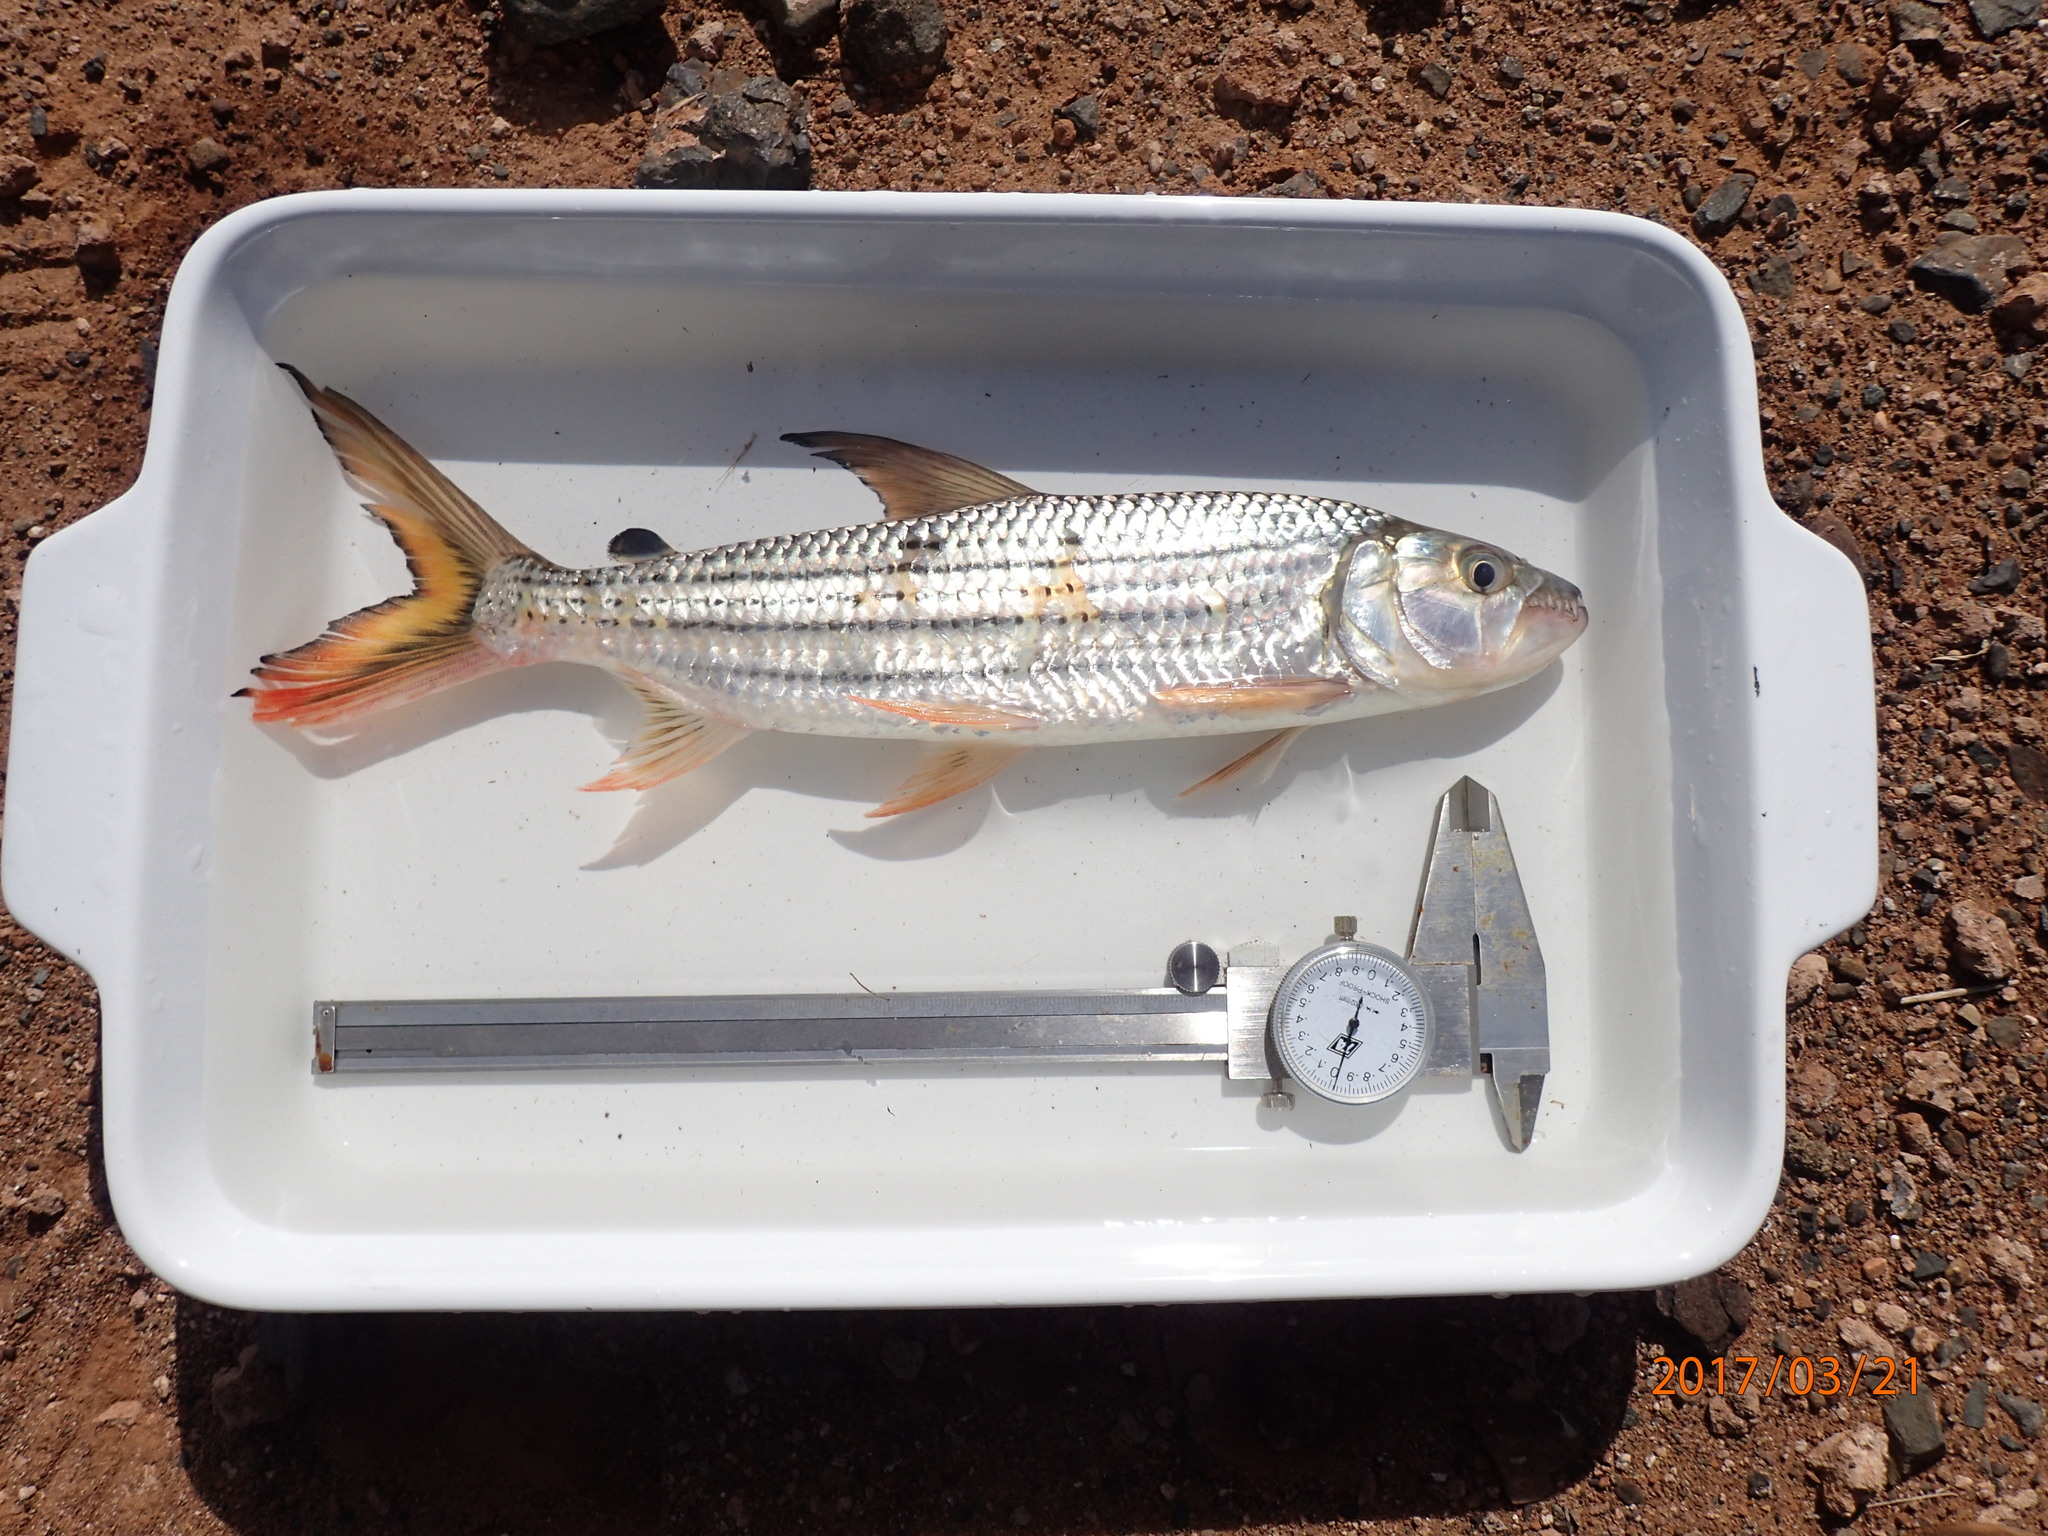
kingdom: Animalia
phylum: Chordata
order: Characiformes
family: Alestidae
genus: Hydrocynus
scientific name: Hydrocynus vittatus
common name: Tigerfish
